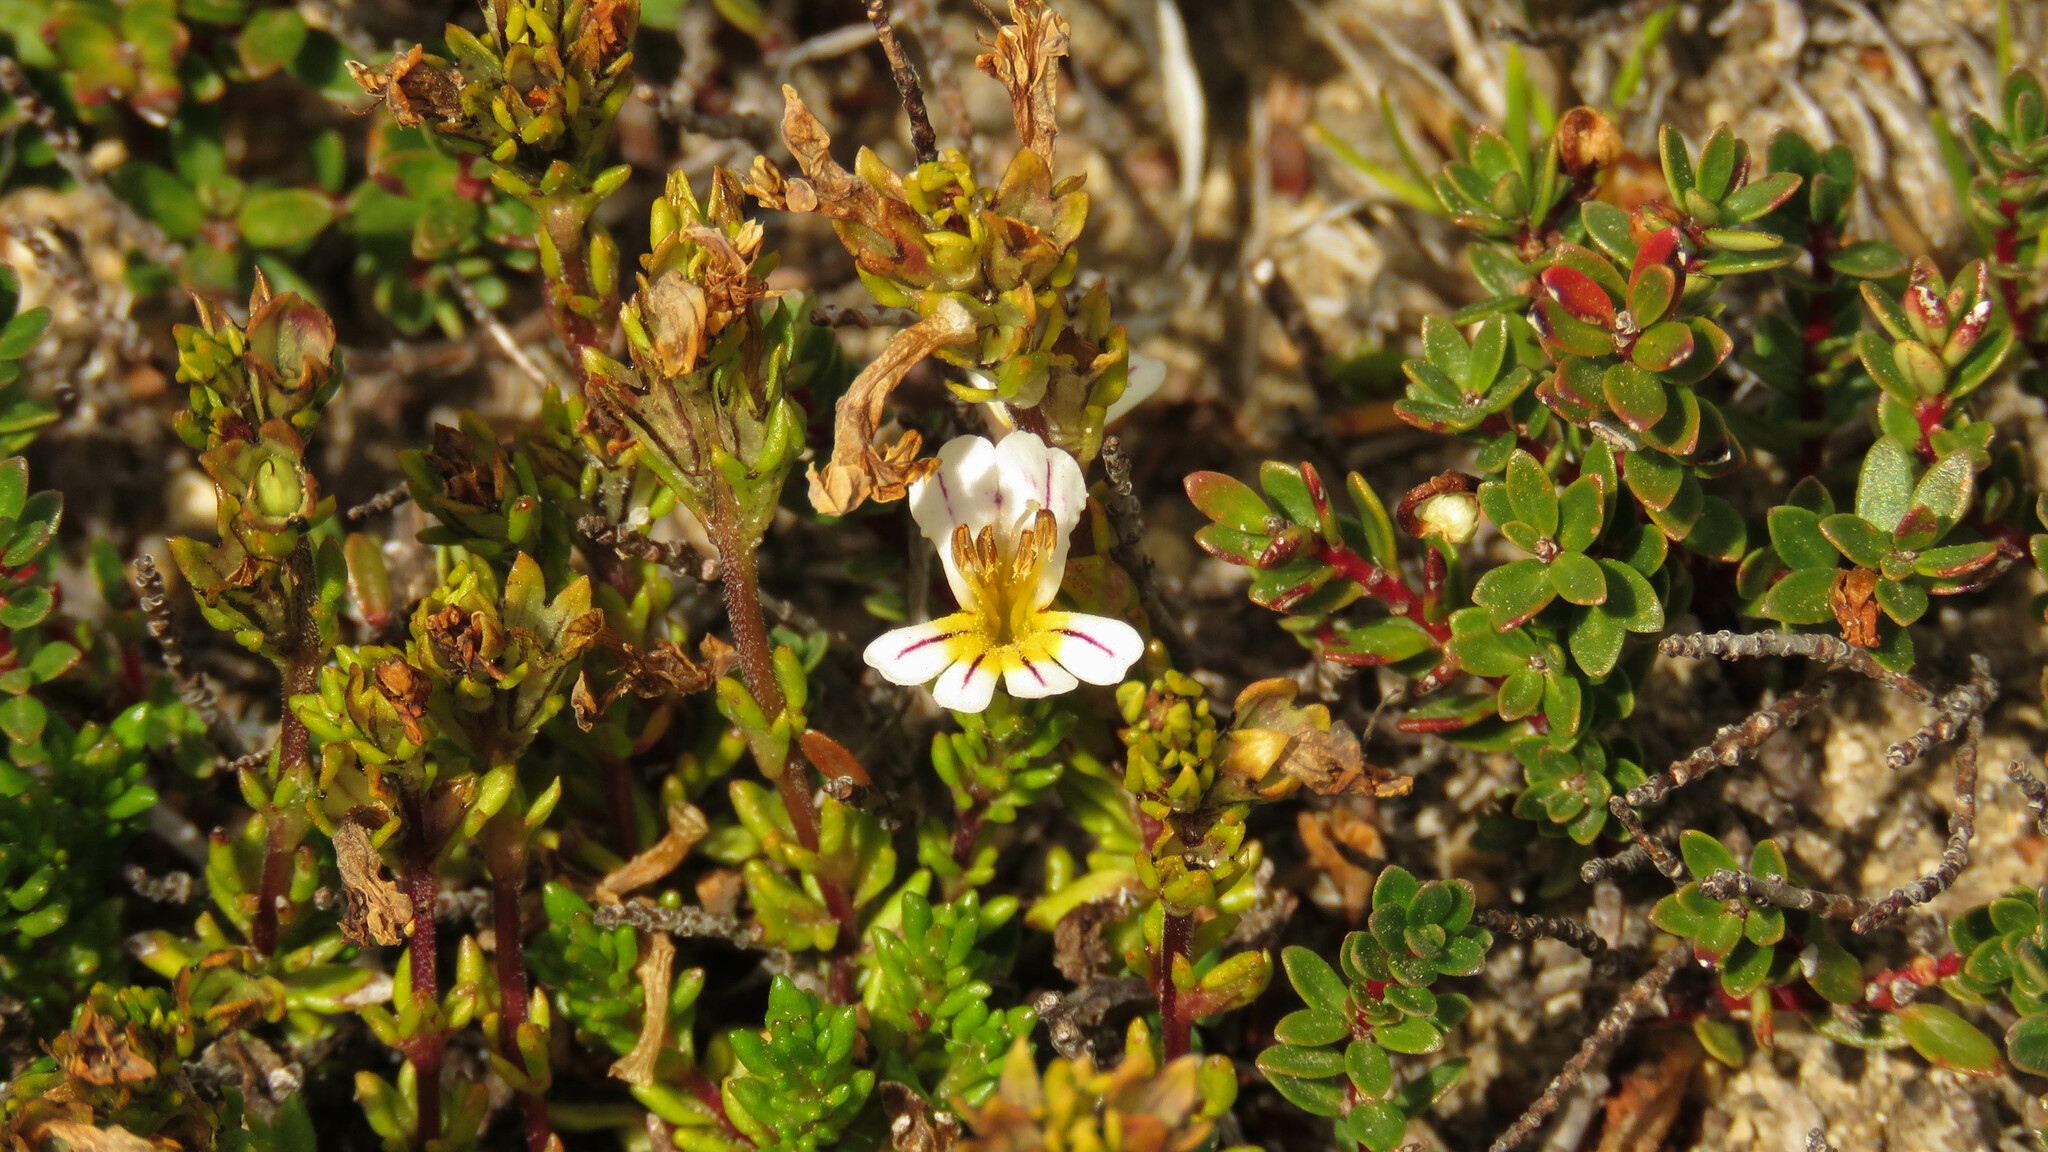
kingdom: Plantae
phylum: Tracheophyta
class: Magnoliopsida
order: Lamiales
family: Orobanchaceae
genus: Euphrasia
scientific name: Euphrasia meiantha
